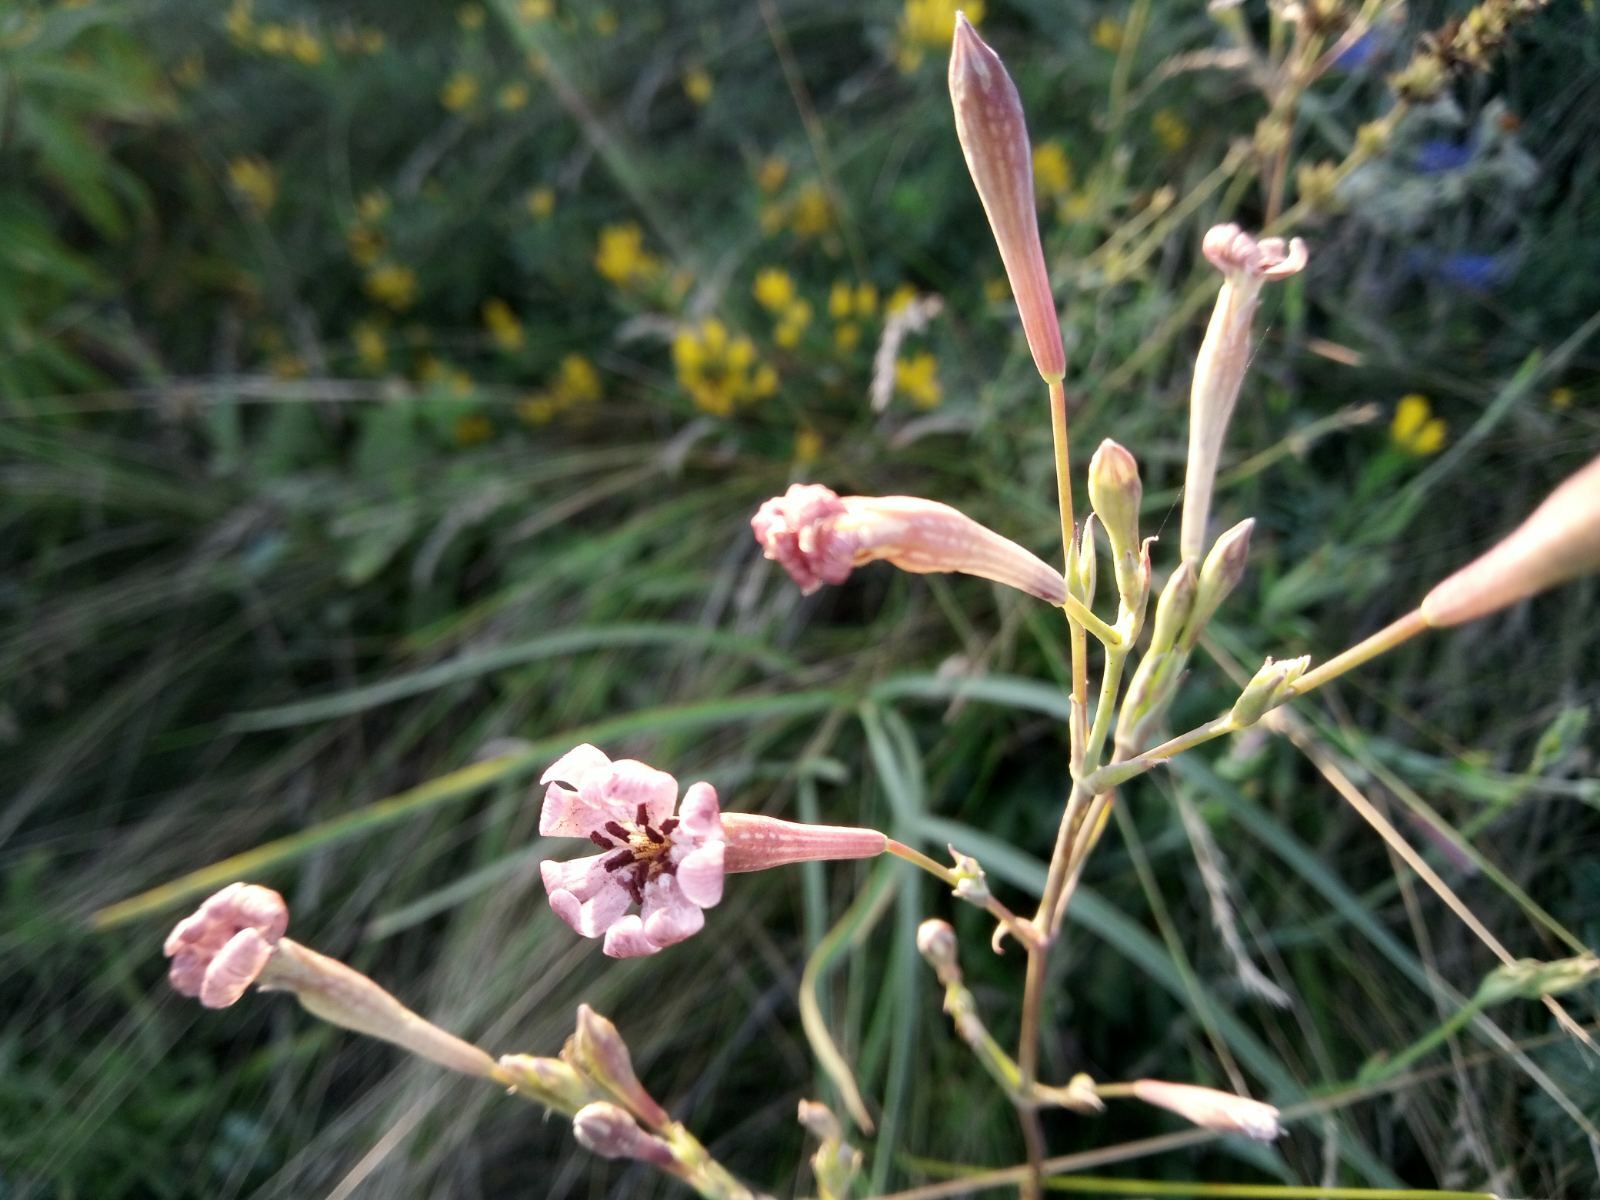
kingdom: Plantae
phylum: Tracheophyta
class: Magnoliopsida
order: Caryophyllales
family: Caryophyllaceae
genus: Silene
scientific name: Silene bupleuroides
